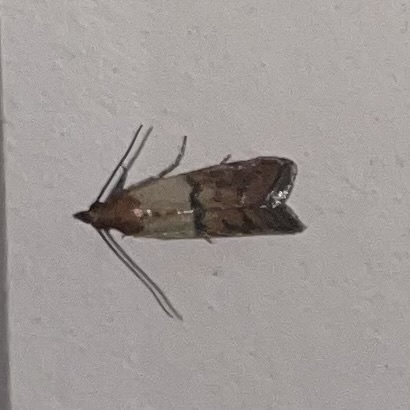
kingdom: Animalia
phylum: Arthropoda
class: Insecta
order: Lepidoptera
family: Pyralidae
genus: Plodia
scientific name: Plodia interpunctella
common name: Indian meal moth
